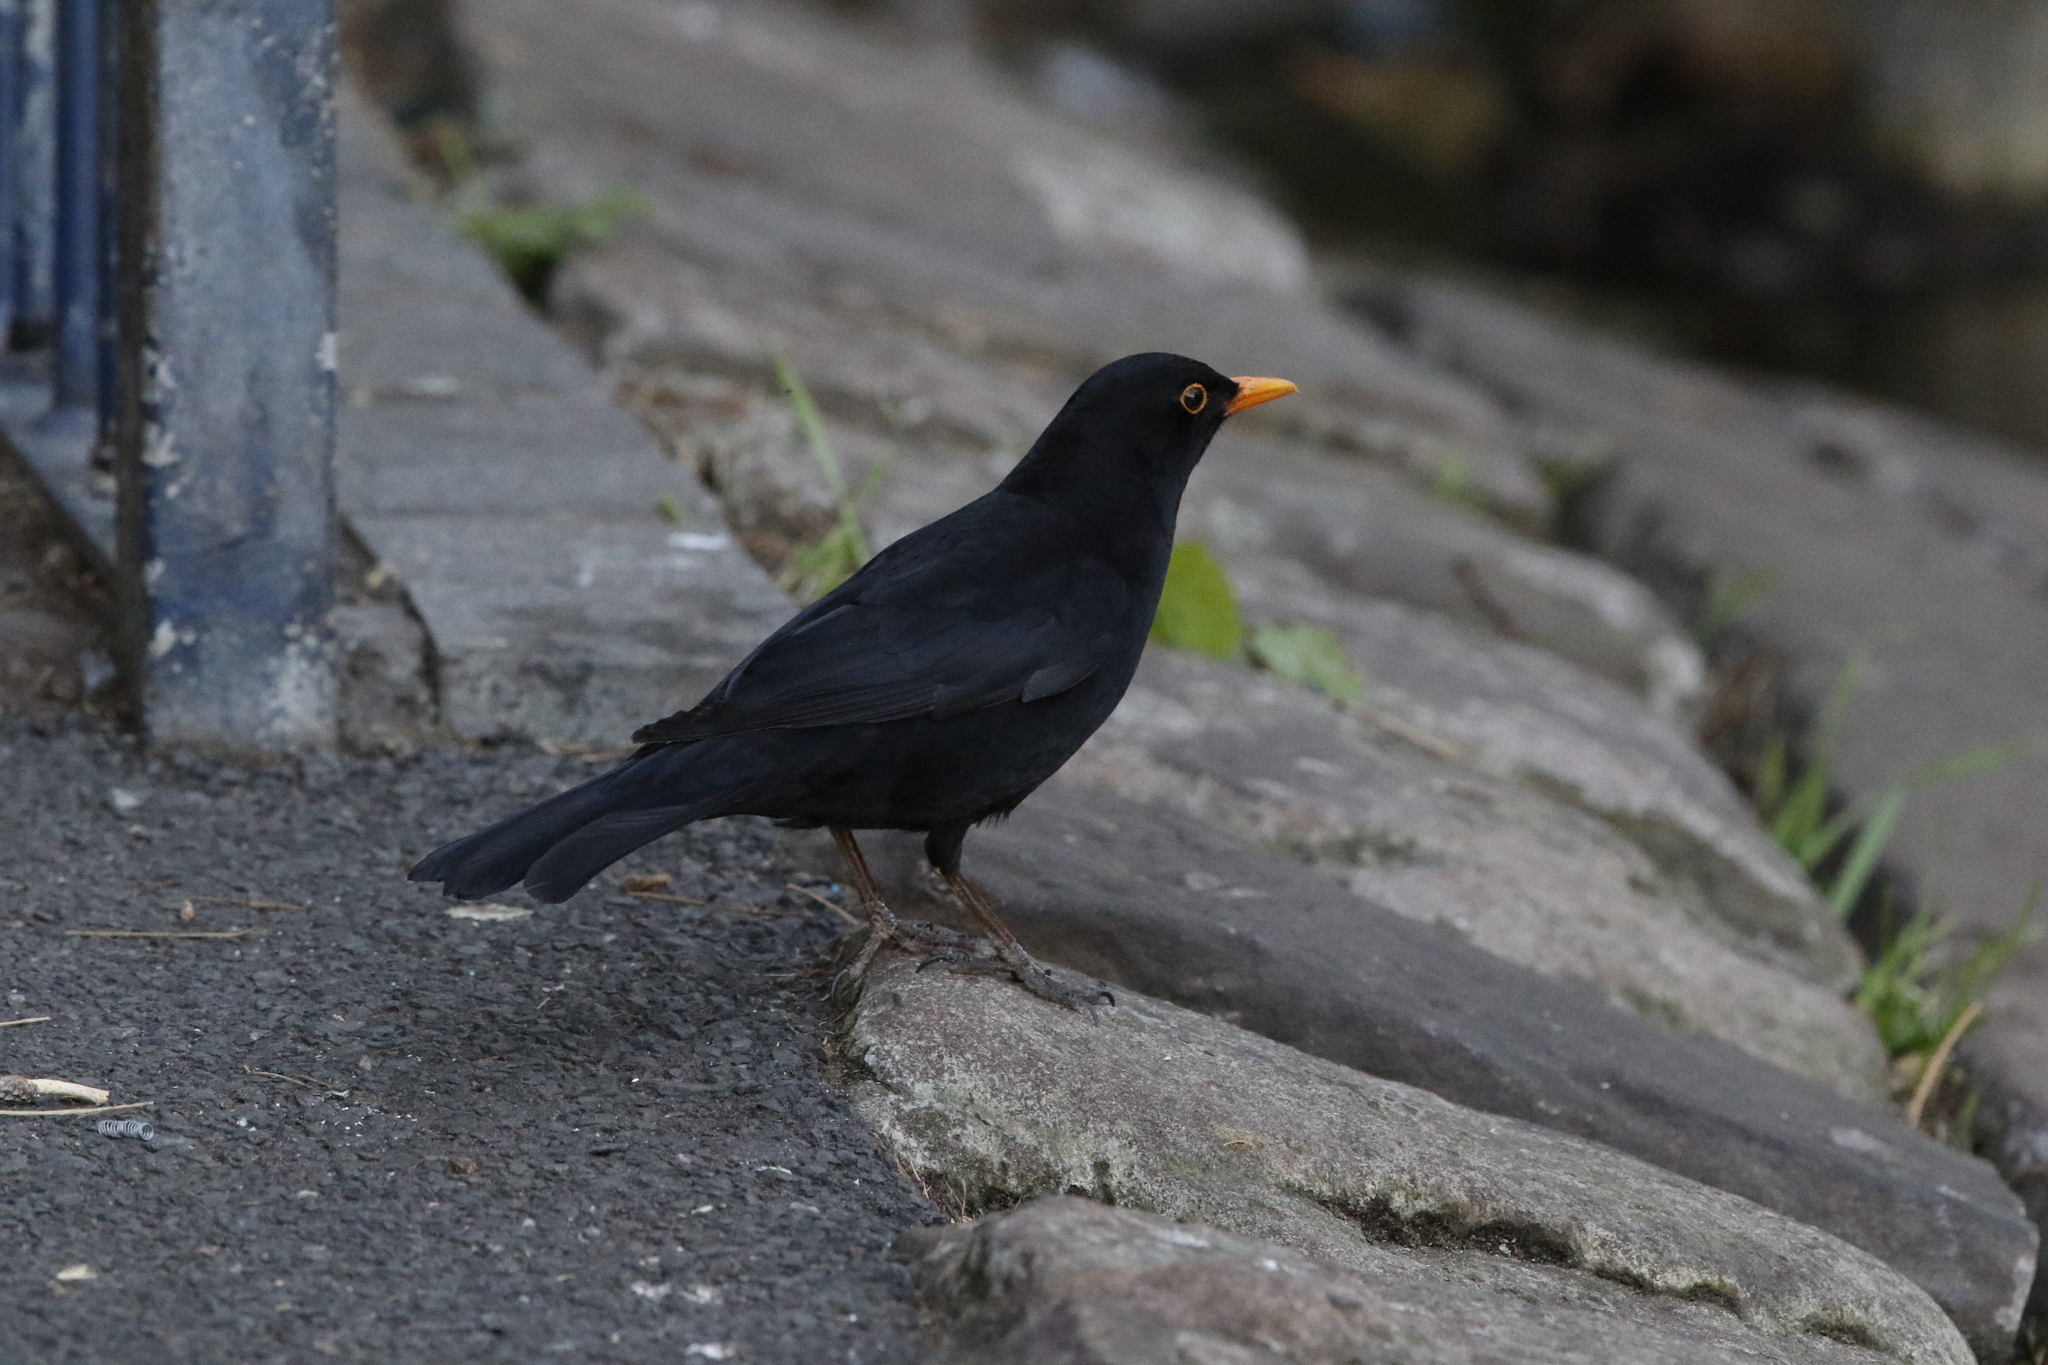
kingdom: Animalia
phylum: Chordata
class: Aves
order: Passeriformes
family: Turdidae
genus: Turdus
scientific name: Turdus merula
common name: Common blackbird
